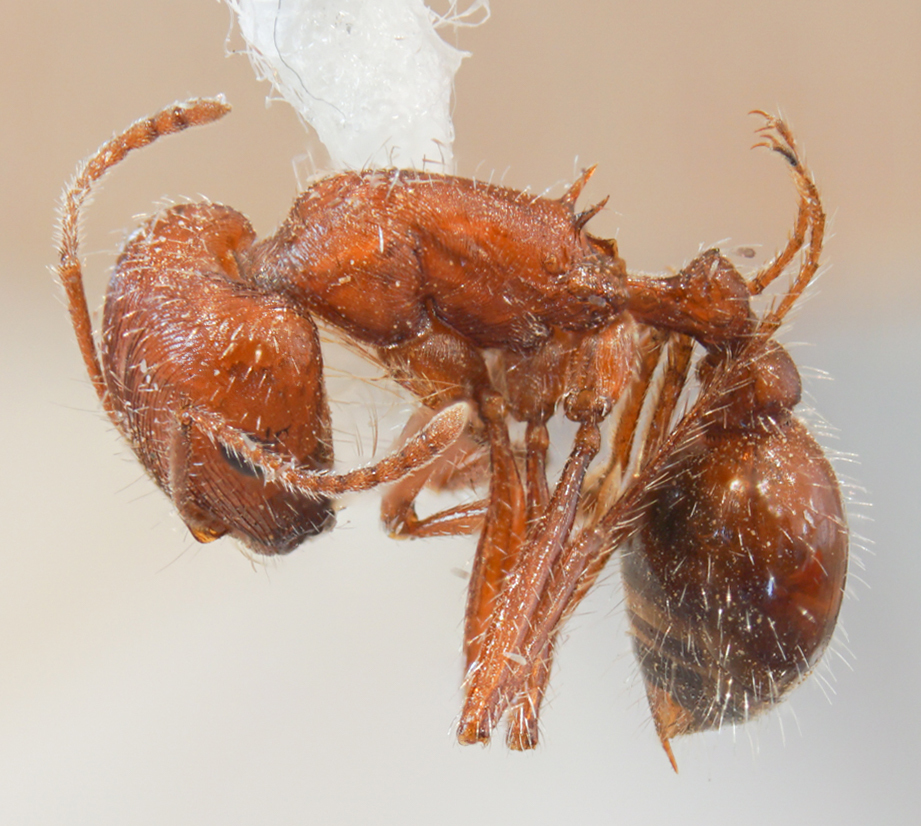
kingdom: Animalia
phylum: Arthropoda
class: Insecta
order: Hymenoptera
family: Formicidae
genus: Pogonomyrmex
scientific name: Pogonomyrmex subnitidus
